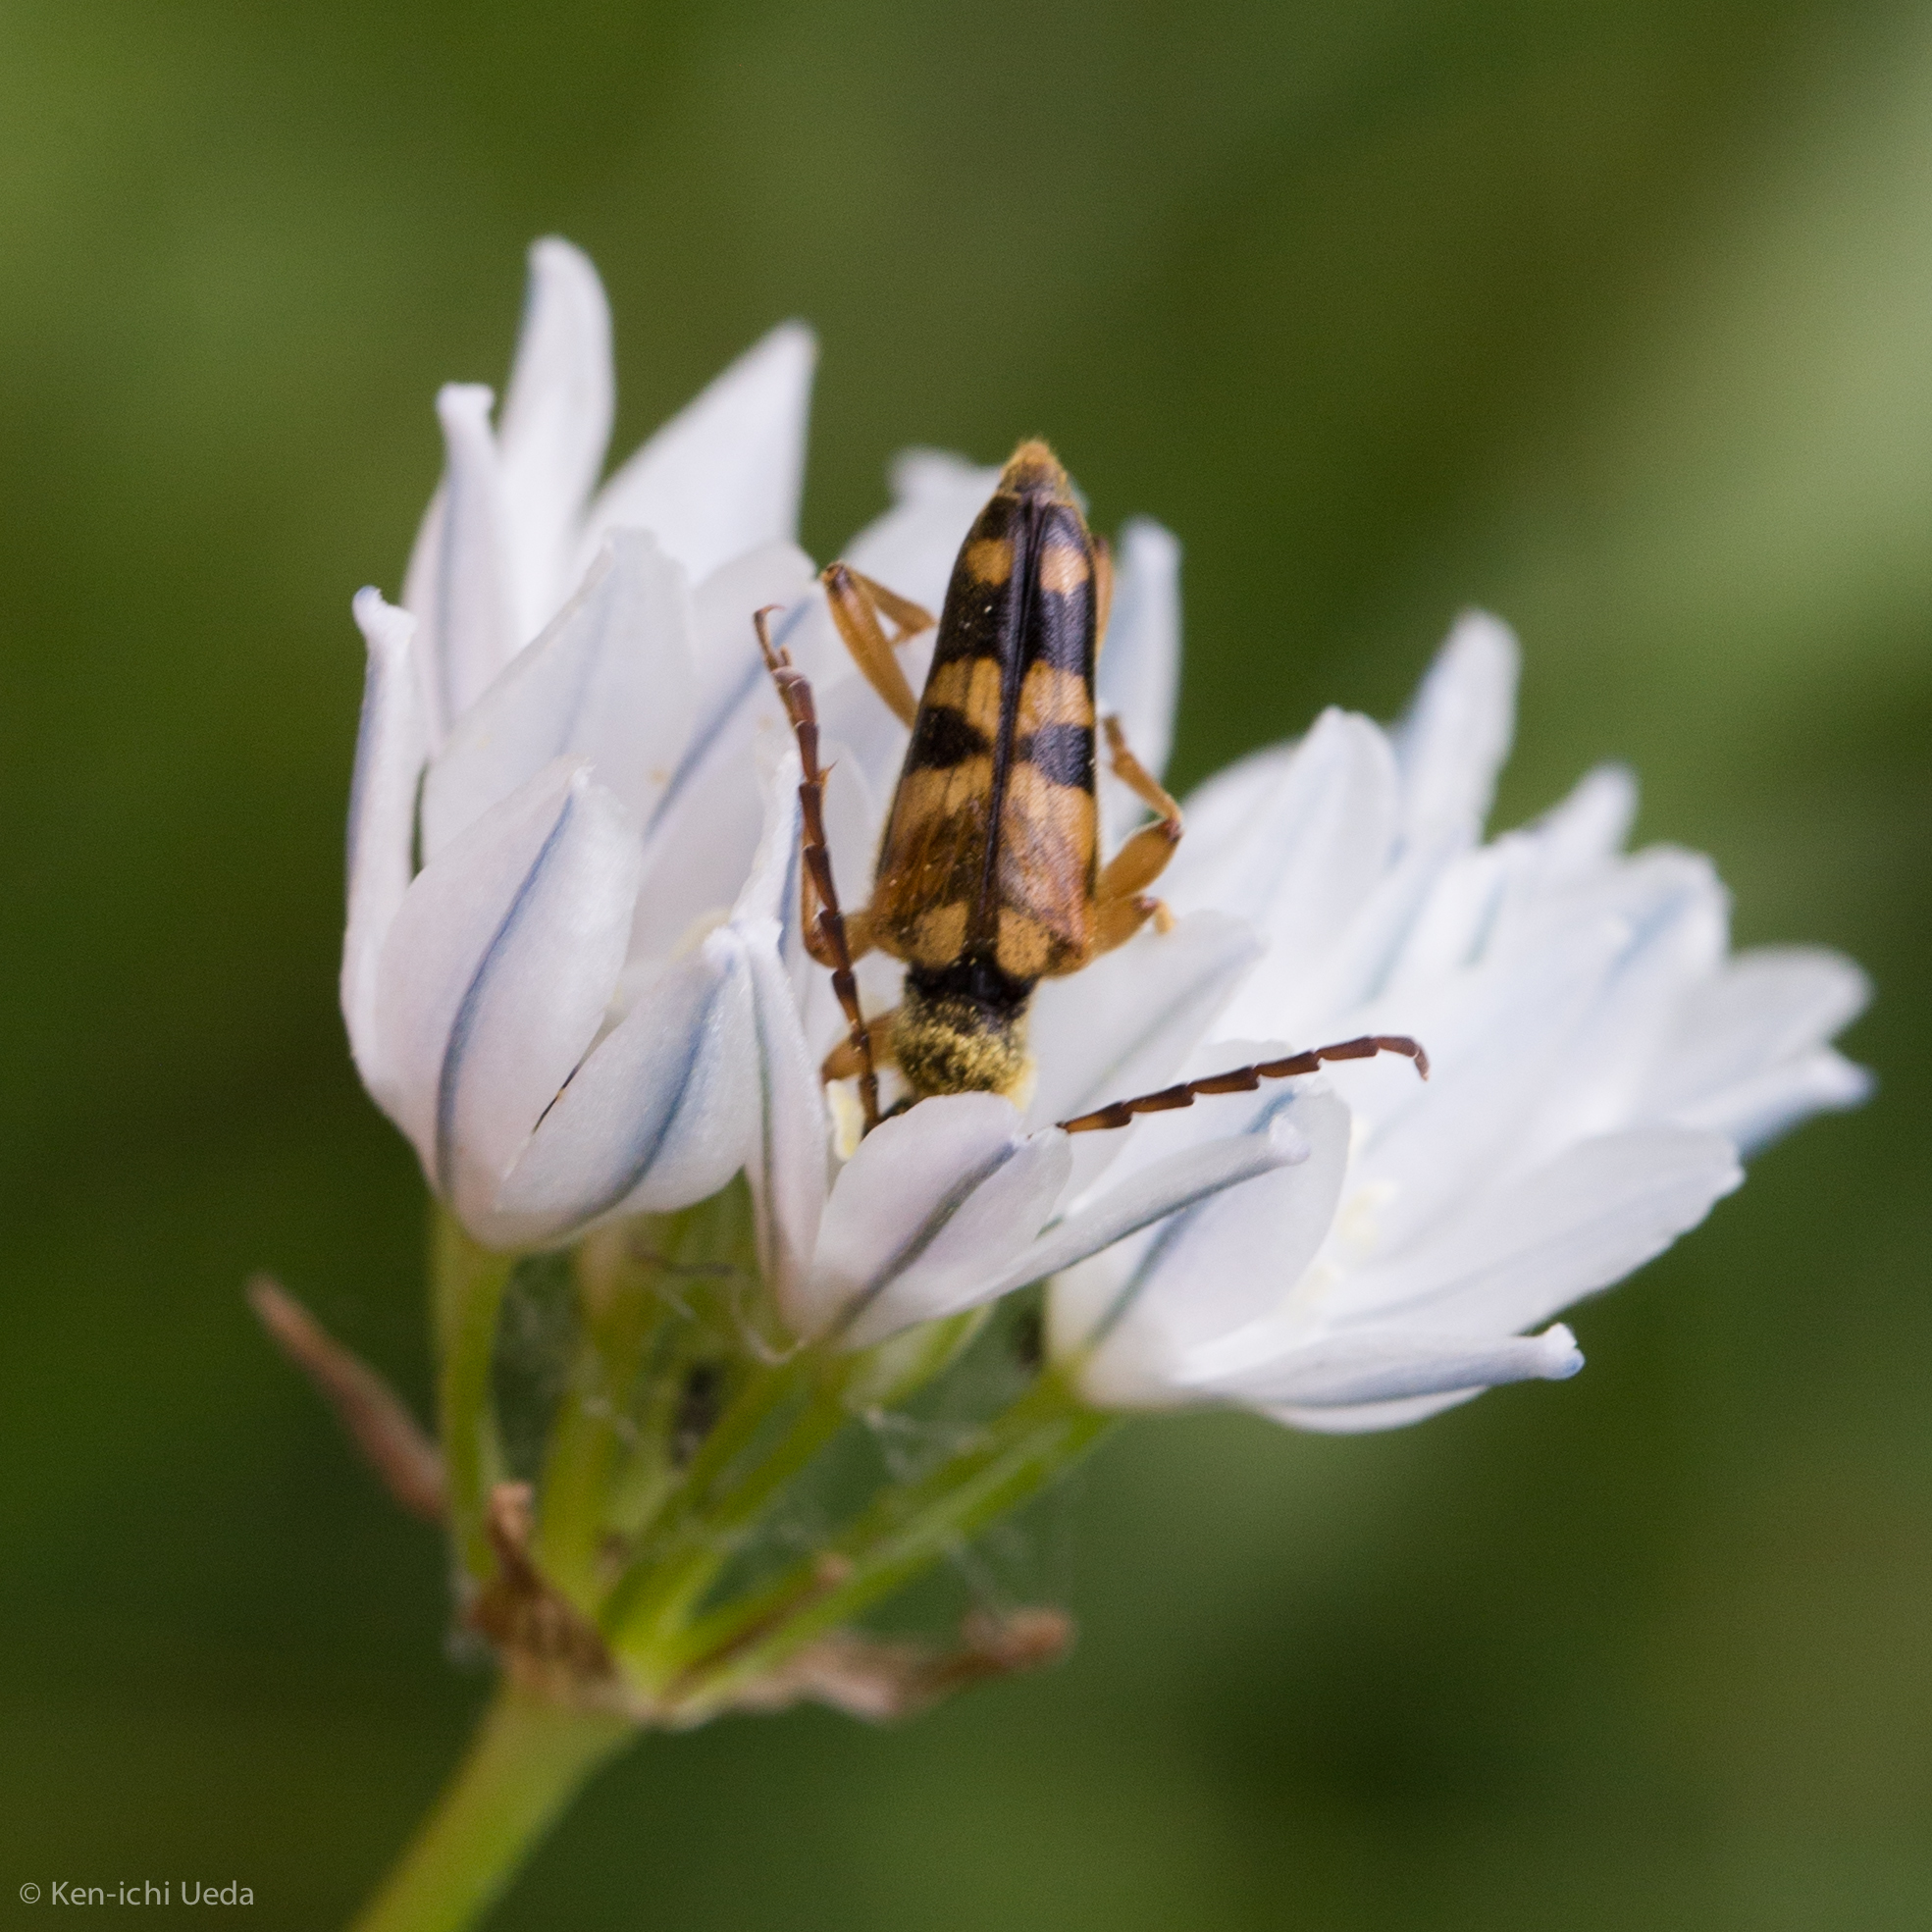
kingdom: Animalia
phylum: Arthropoda
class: Insecta
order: Coleoptera
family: Cerambycidae
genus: Xestoleptura
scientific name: Xestoleptura crassipes
